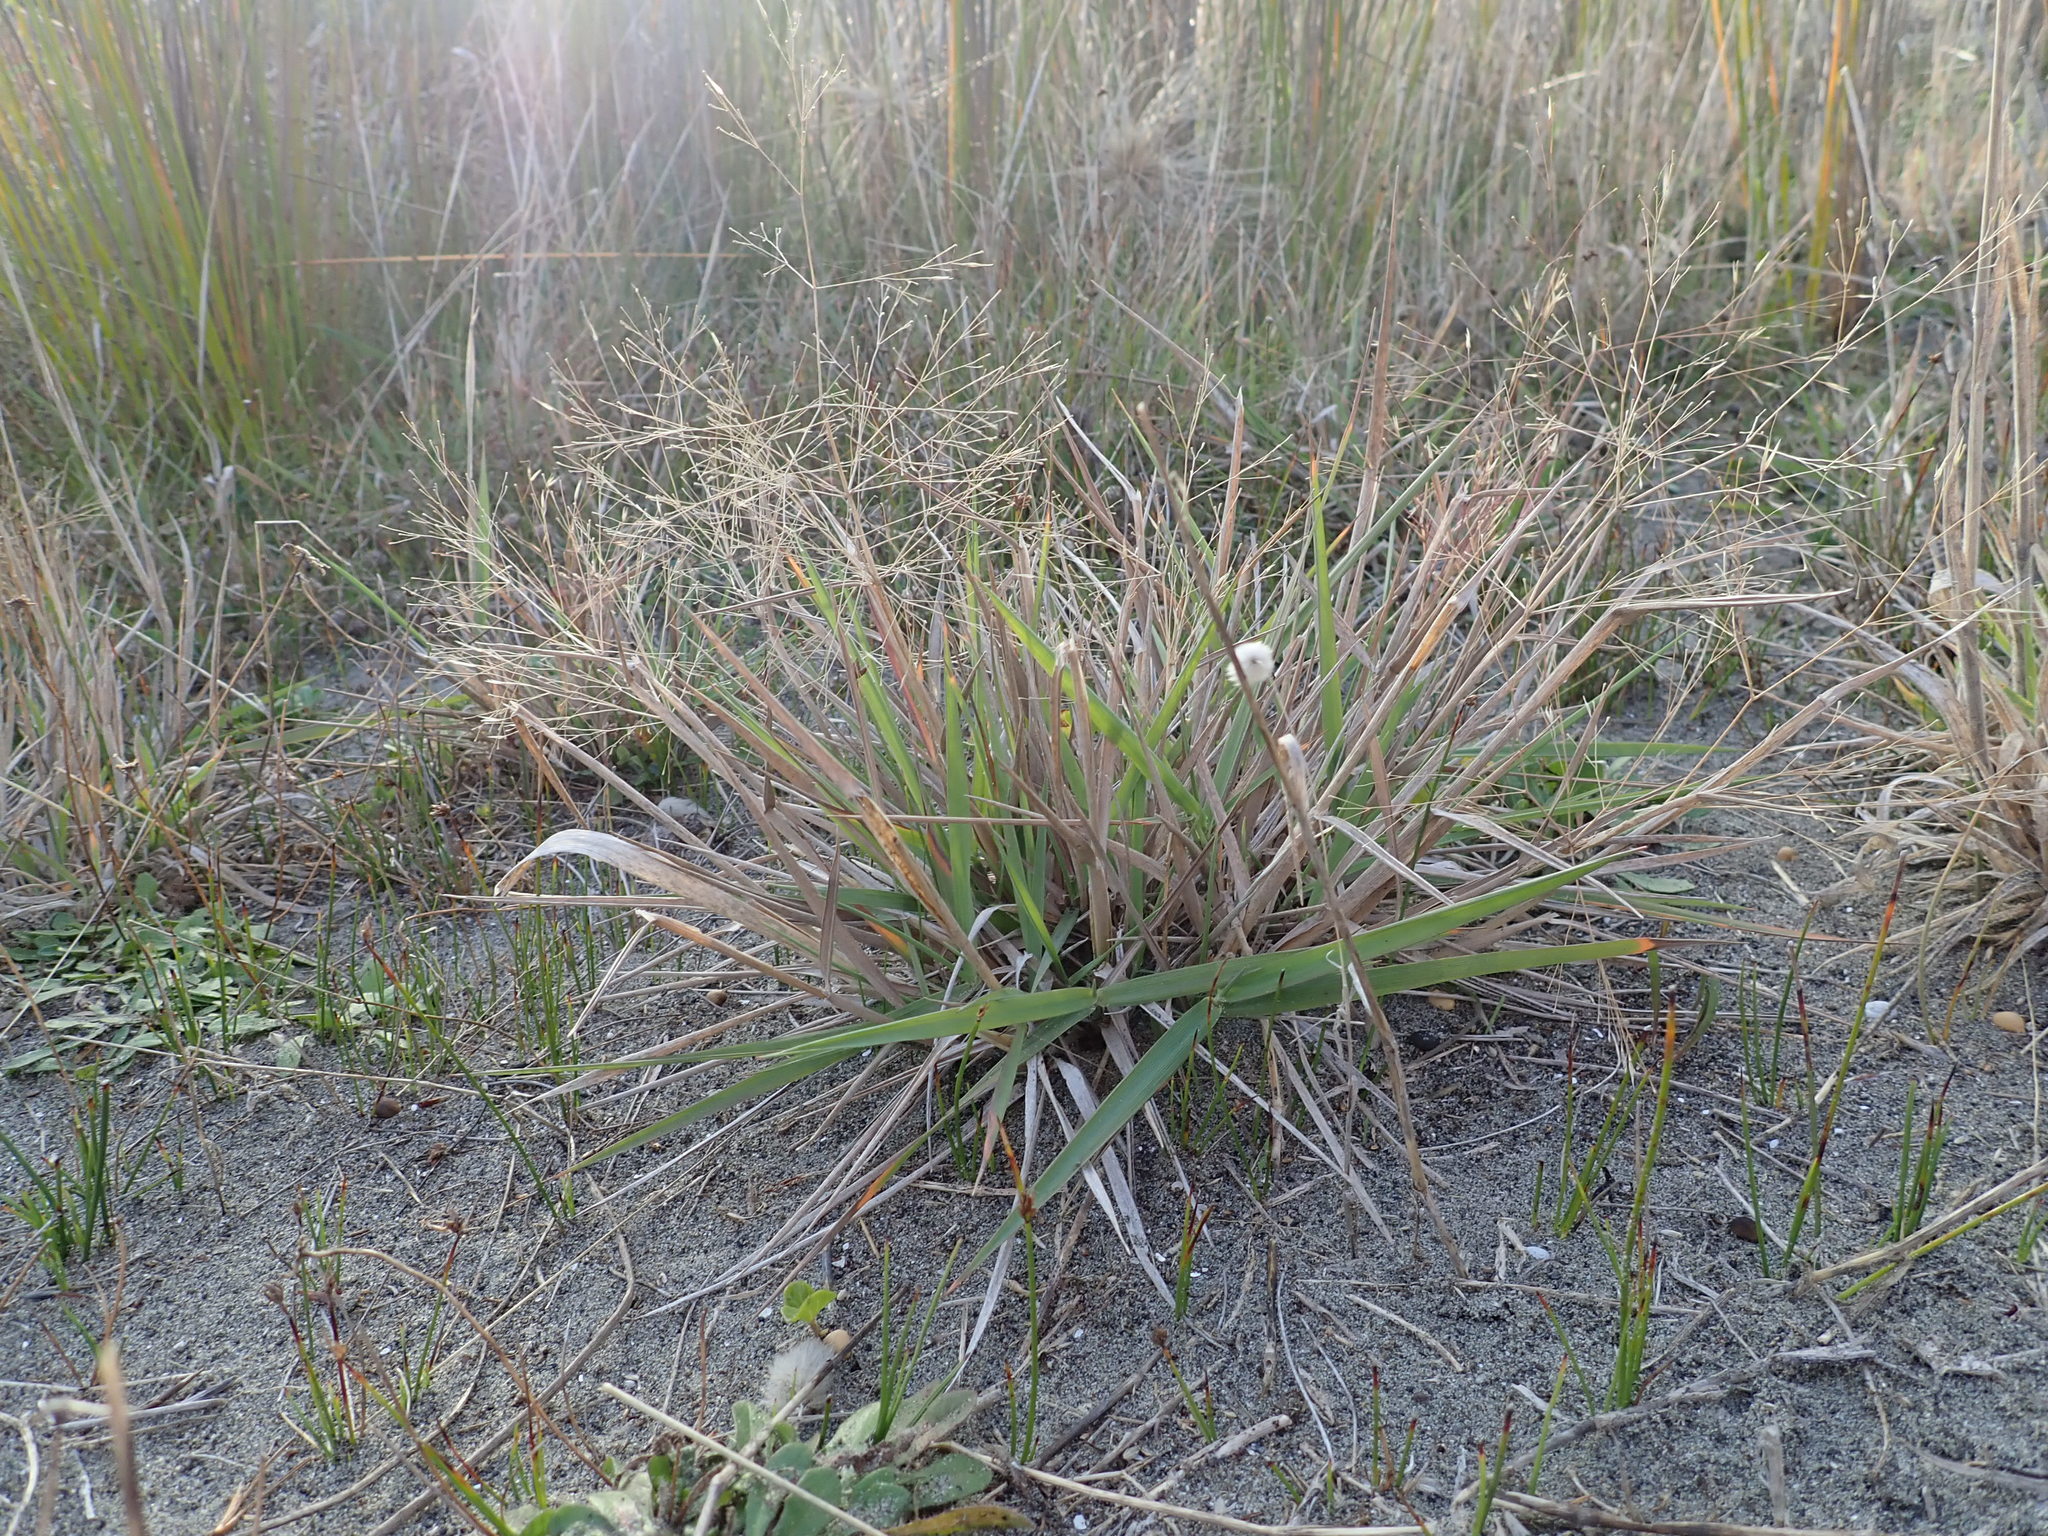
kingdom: Plantae
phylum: Tracheophyta
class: Liliopsida
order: Poales
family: Poaceae
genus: Lachnagrostis
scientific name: Lachnagrostis billardierei
